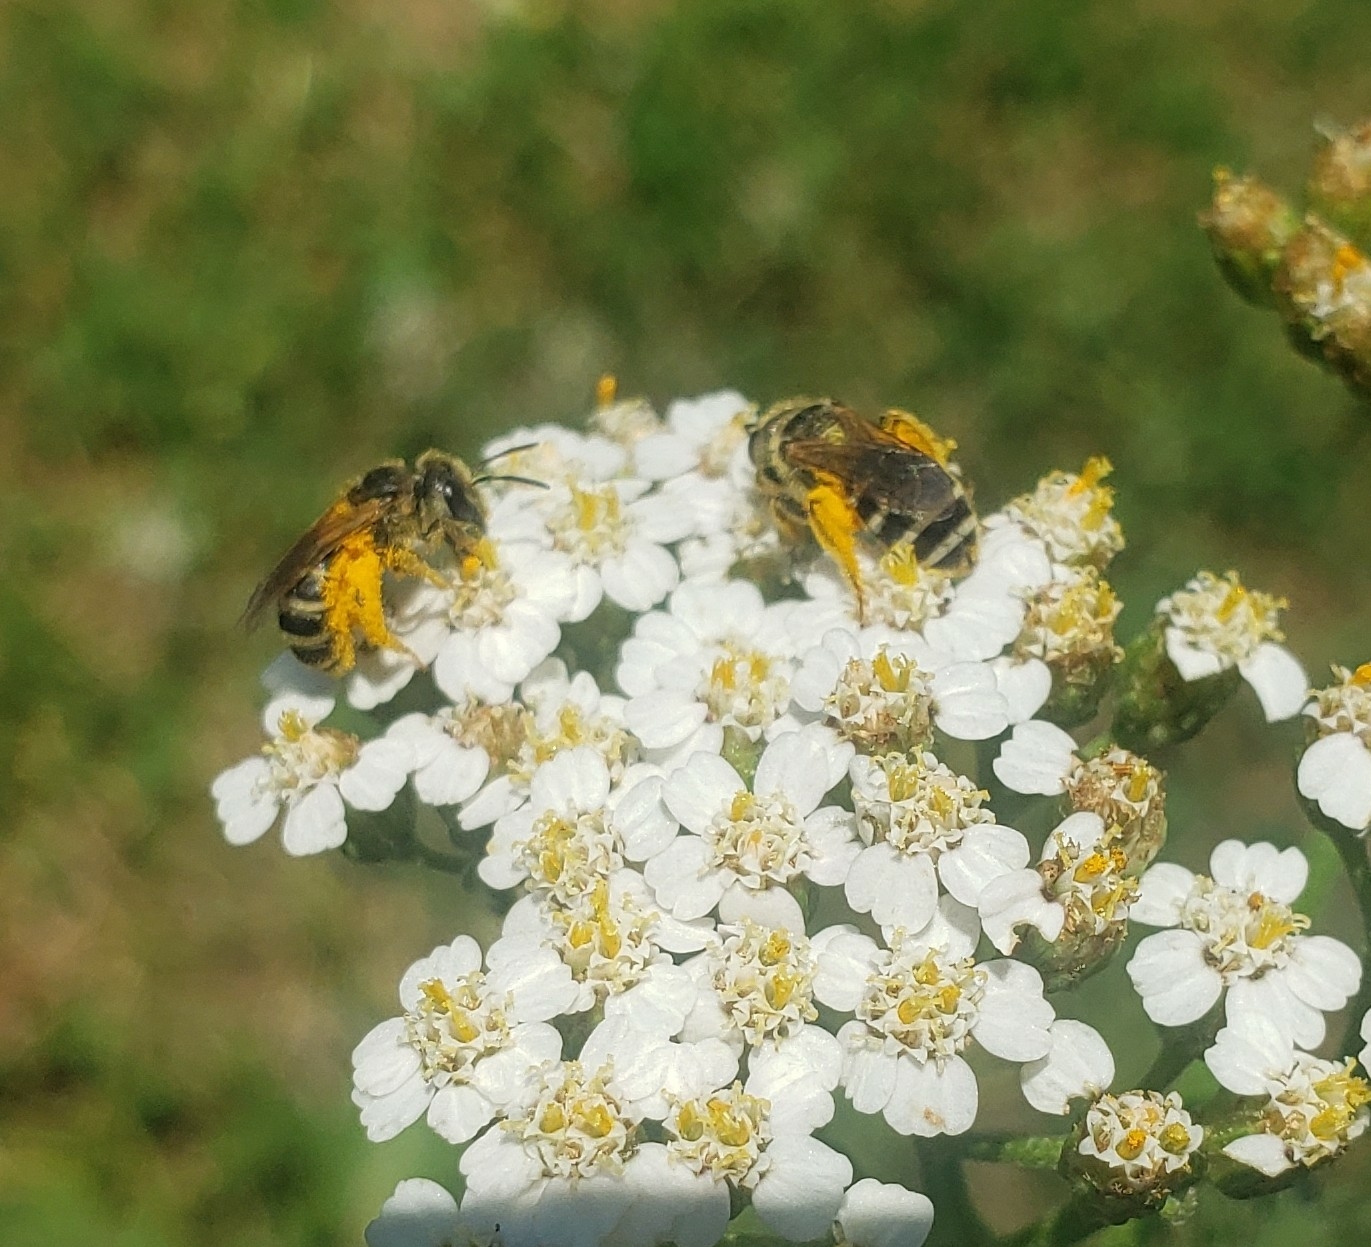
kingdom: Animalia
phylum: Arthropoda
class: Insecta
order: Hymenoptera
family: Halictidae
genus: Halictus
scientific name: Halictus ligatus
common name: Ligated furrow bee
